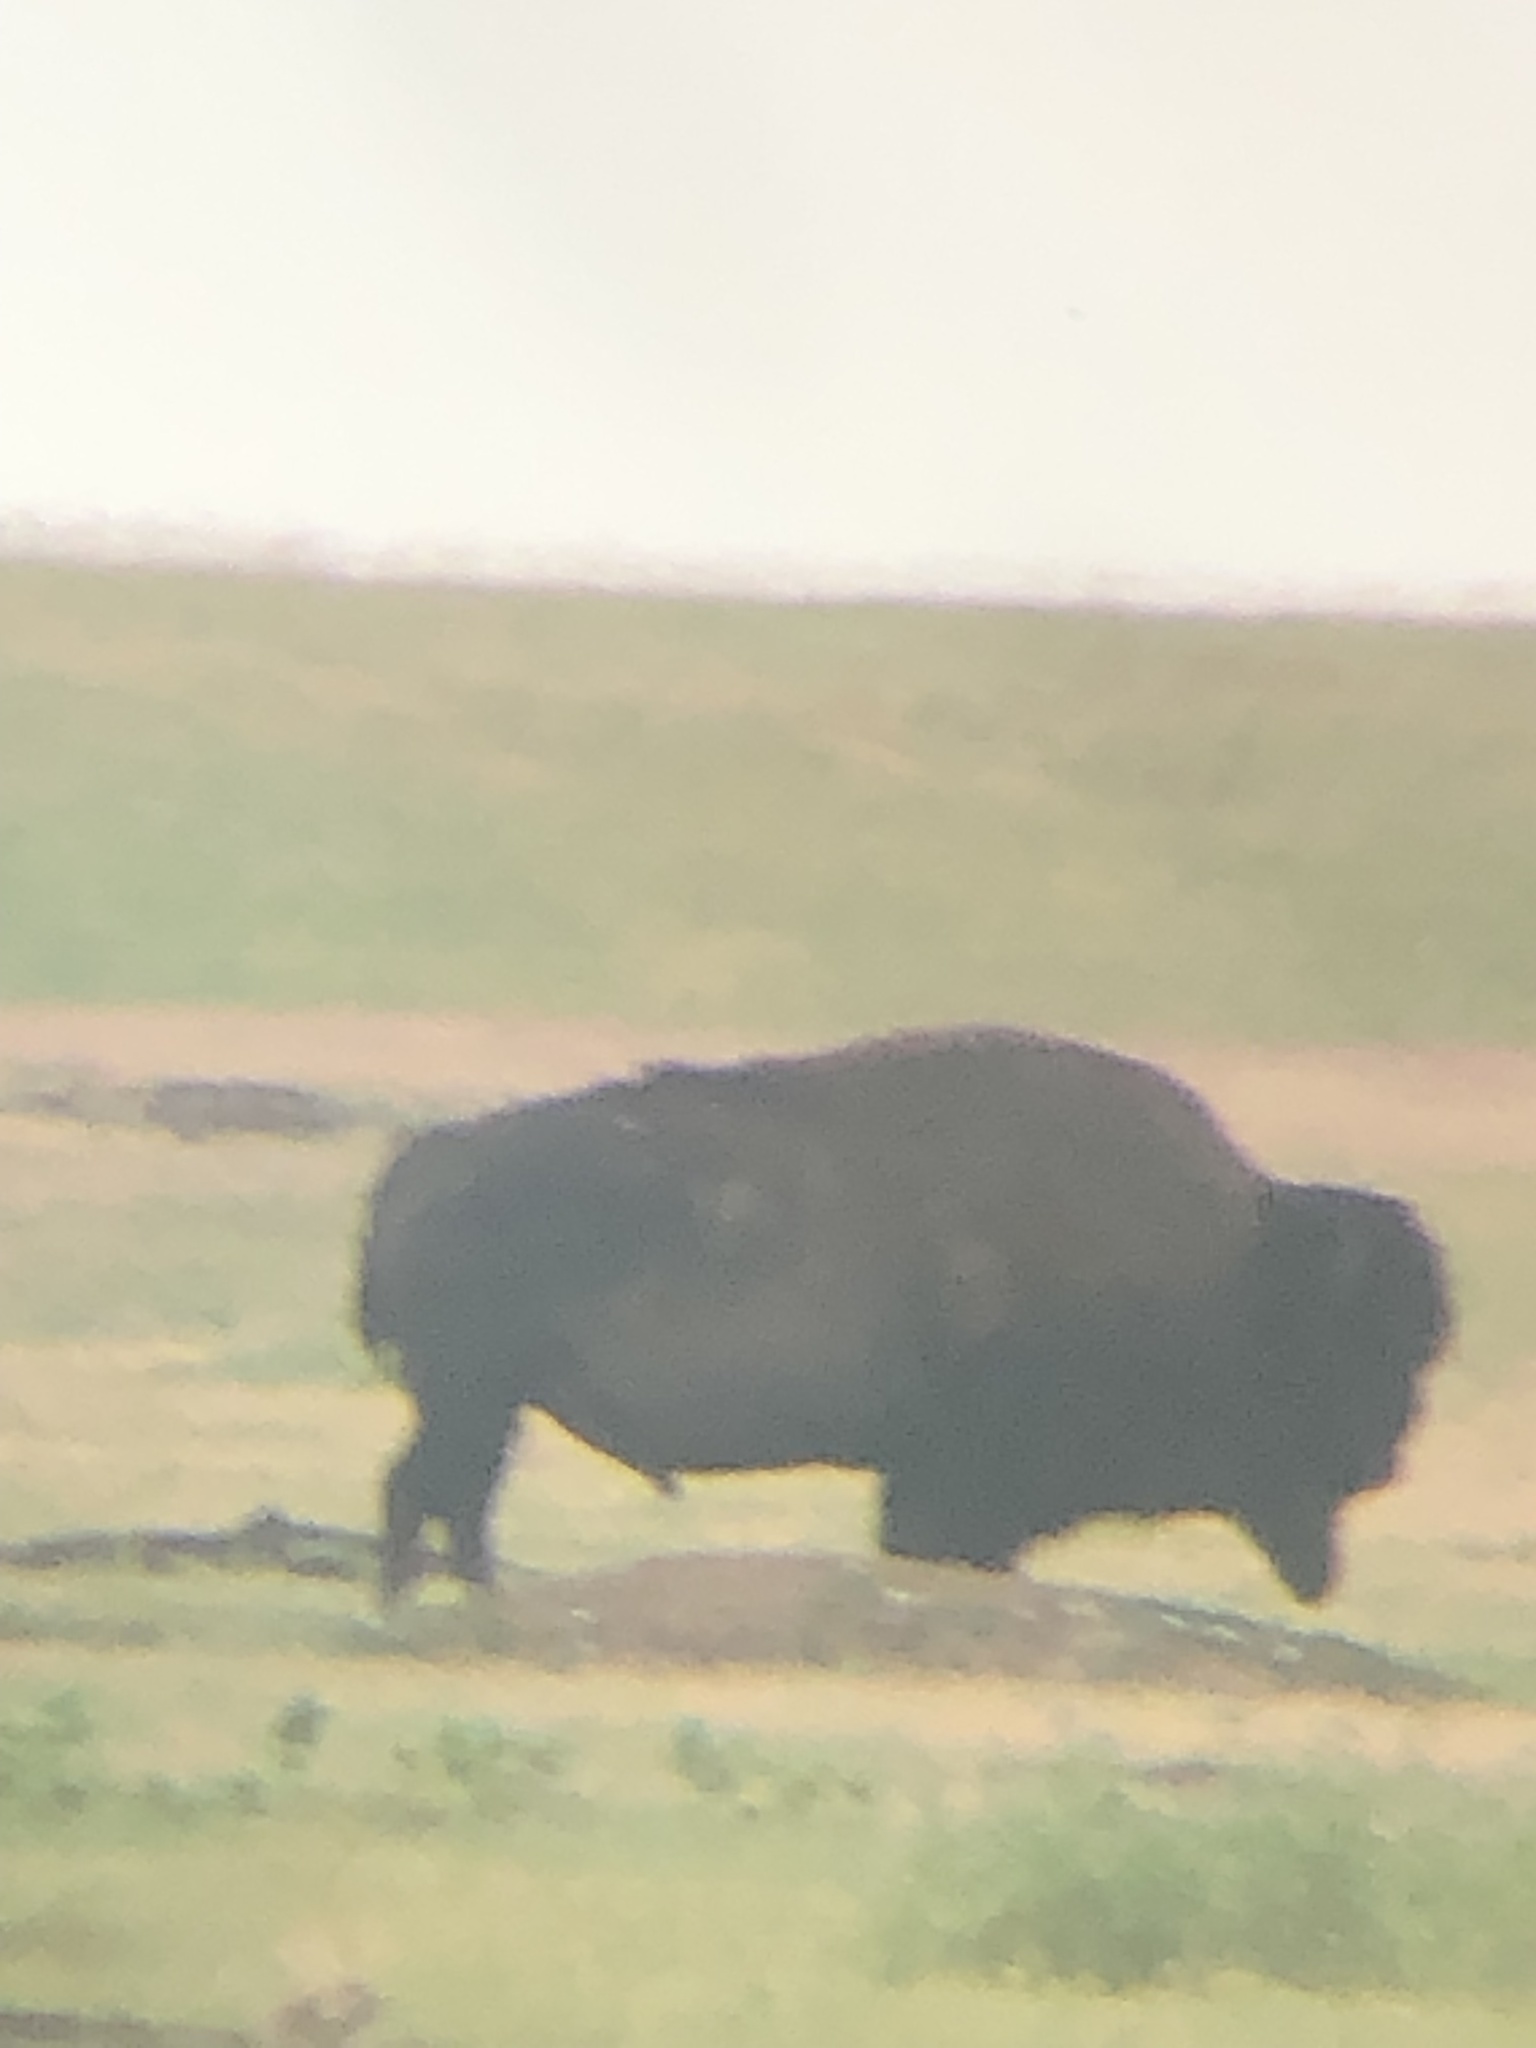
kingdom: Animalia
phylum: Chordata
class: Mammalia
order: Artiodactyla
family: Bovidae
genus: Bison
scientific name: Bison bison
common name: American bison
